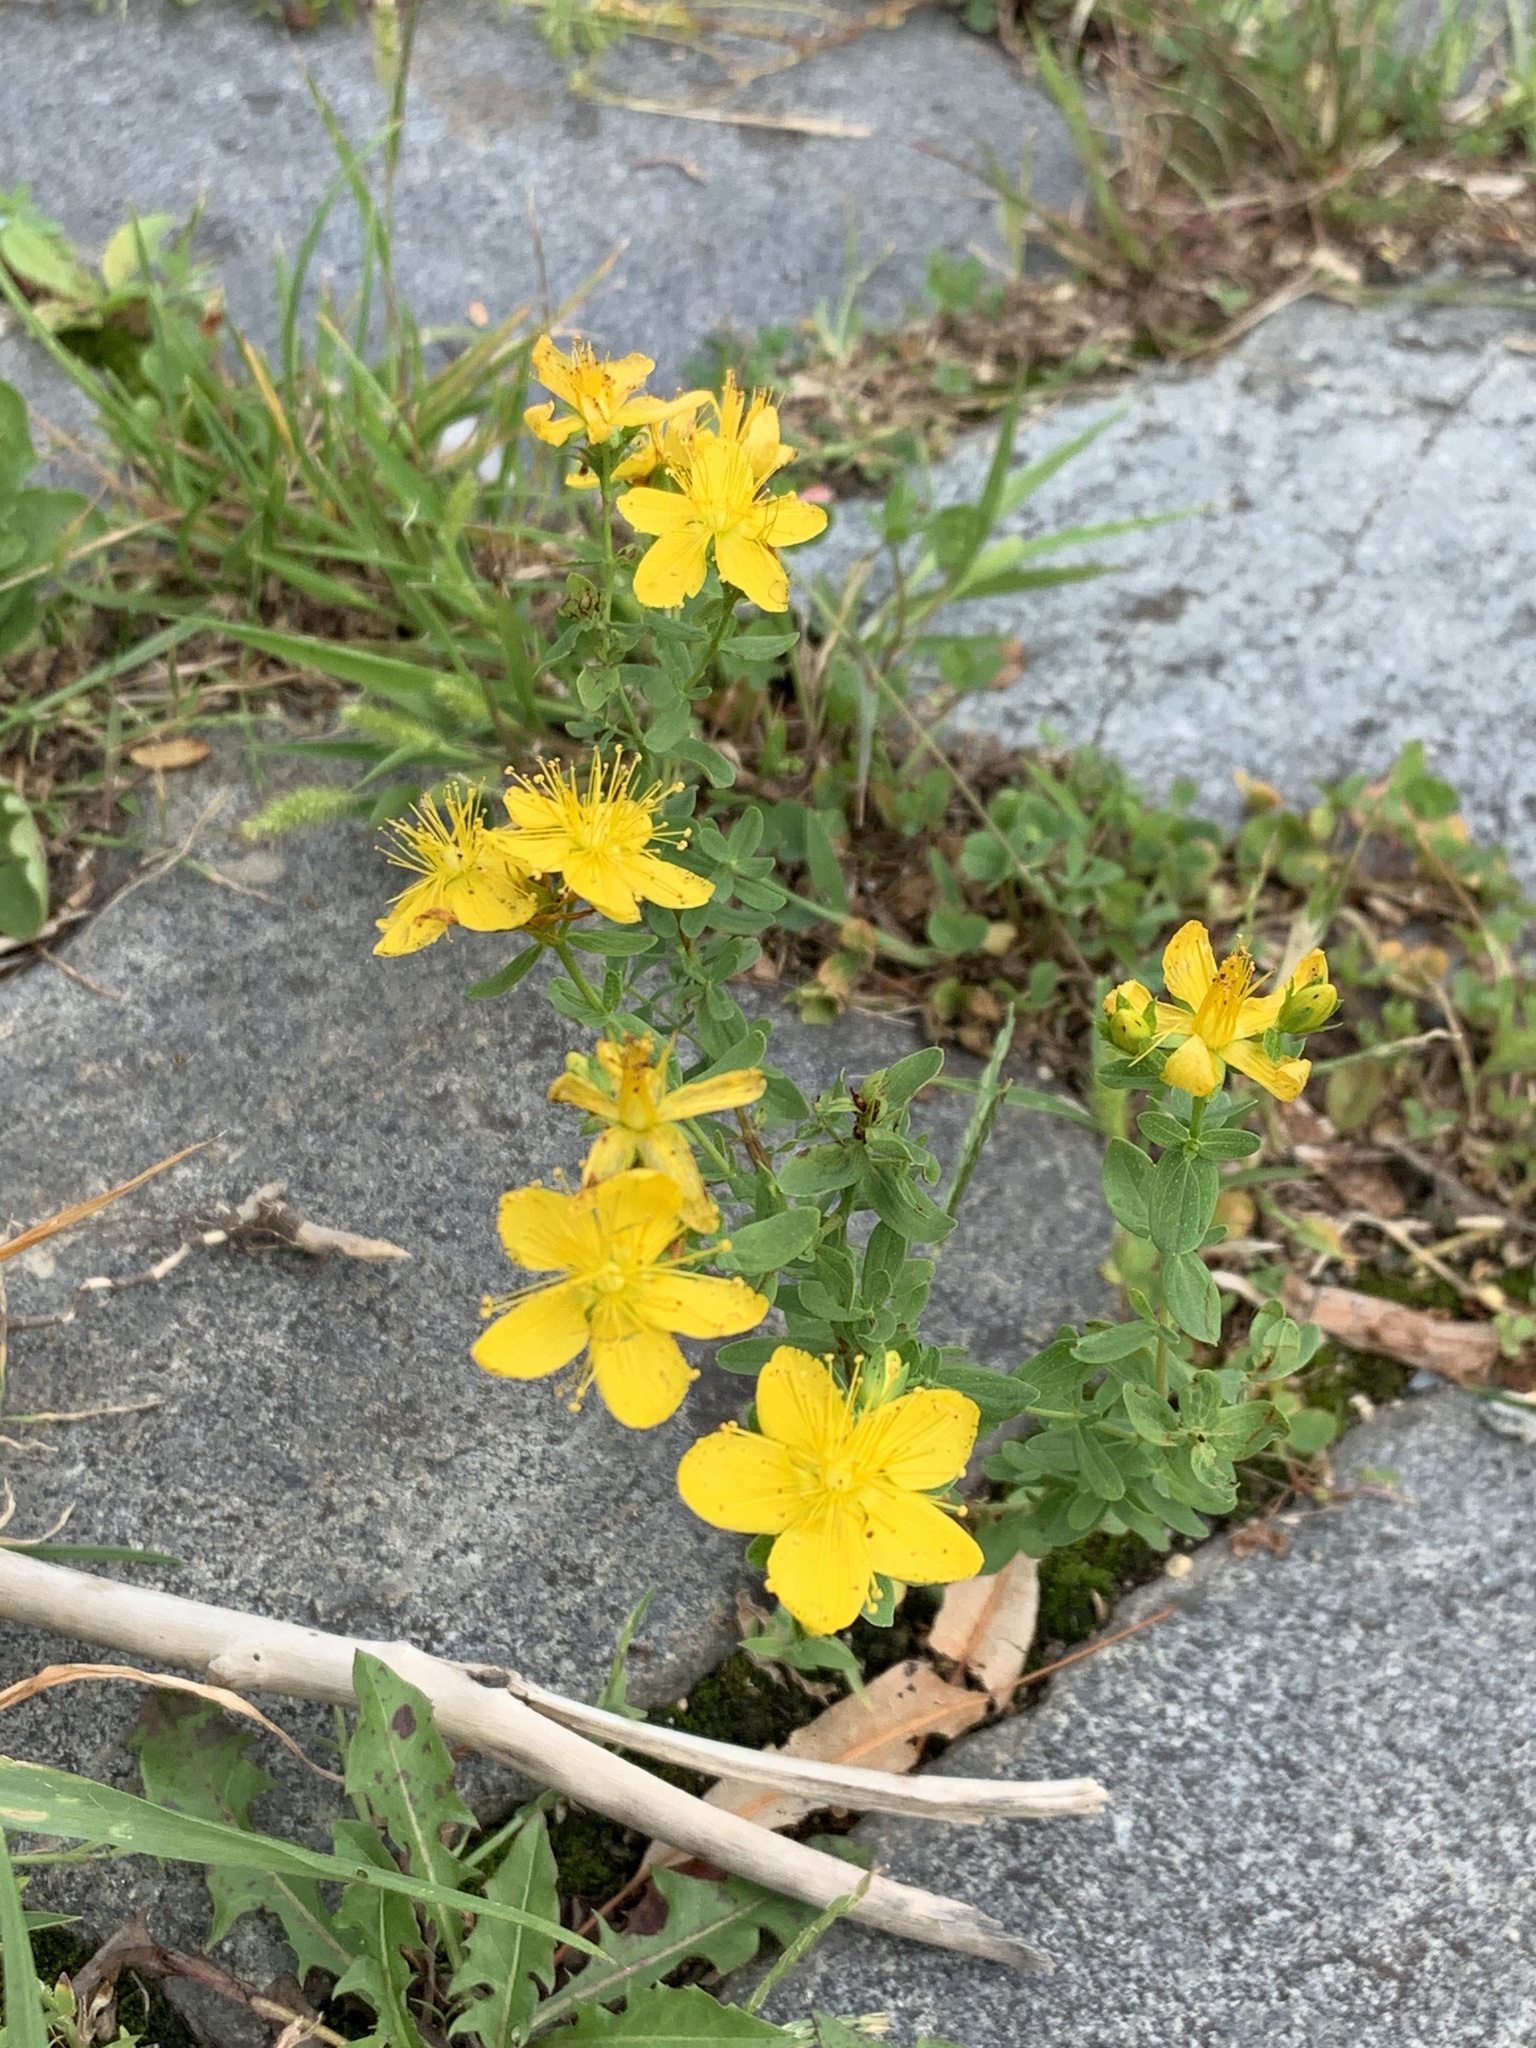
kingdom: Plantae
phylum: Tracheophyta
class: Magnoliopsida
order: Malpighiales
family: Hypericaceae
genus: Hypericum
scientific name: Hypericum perforatum
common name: Common st. johnswort
